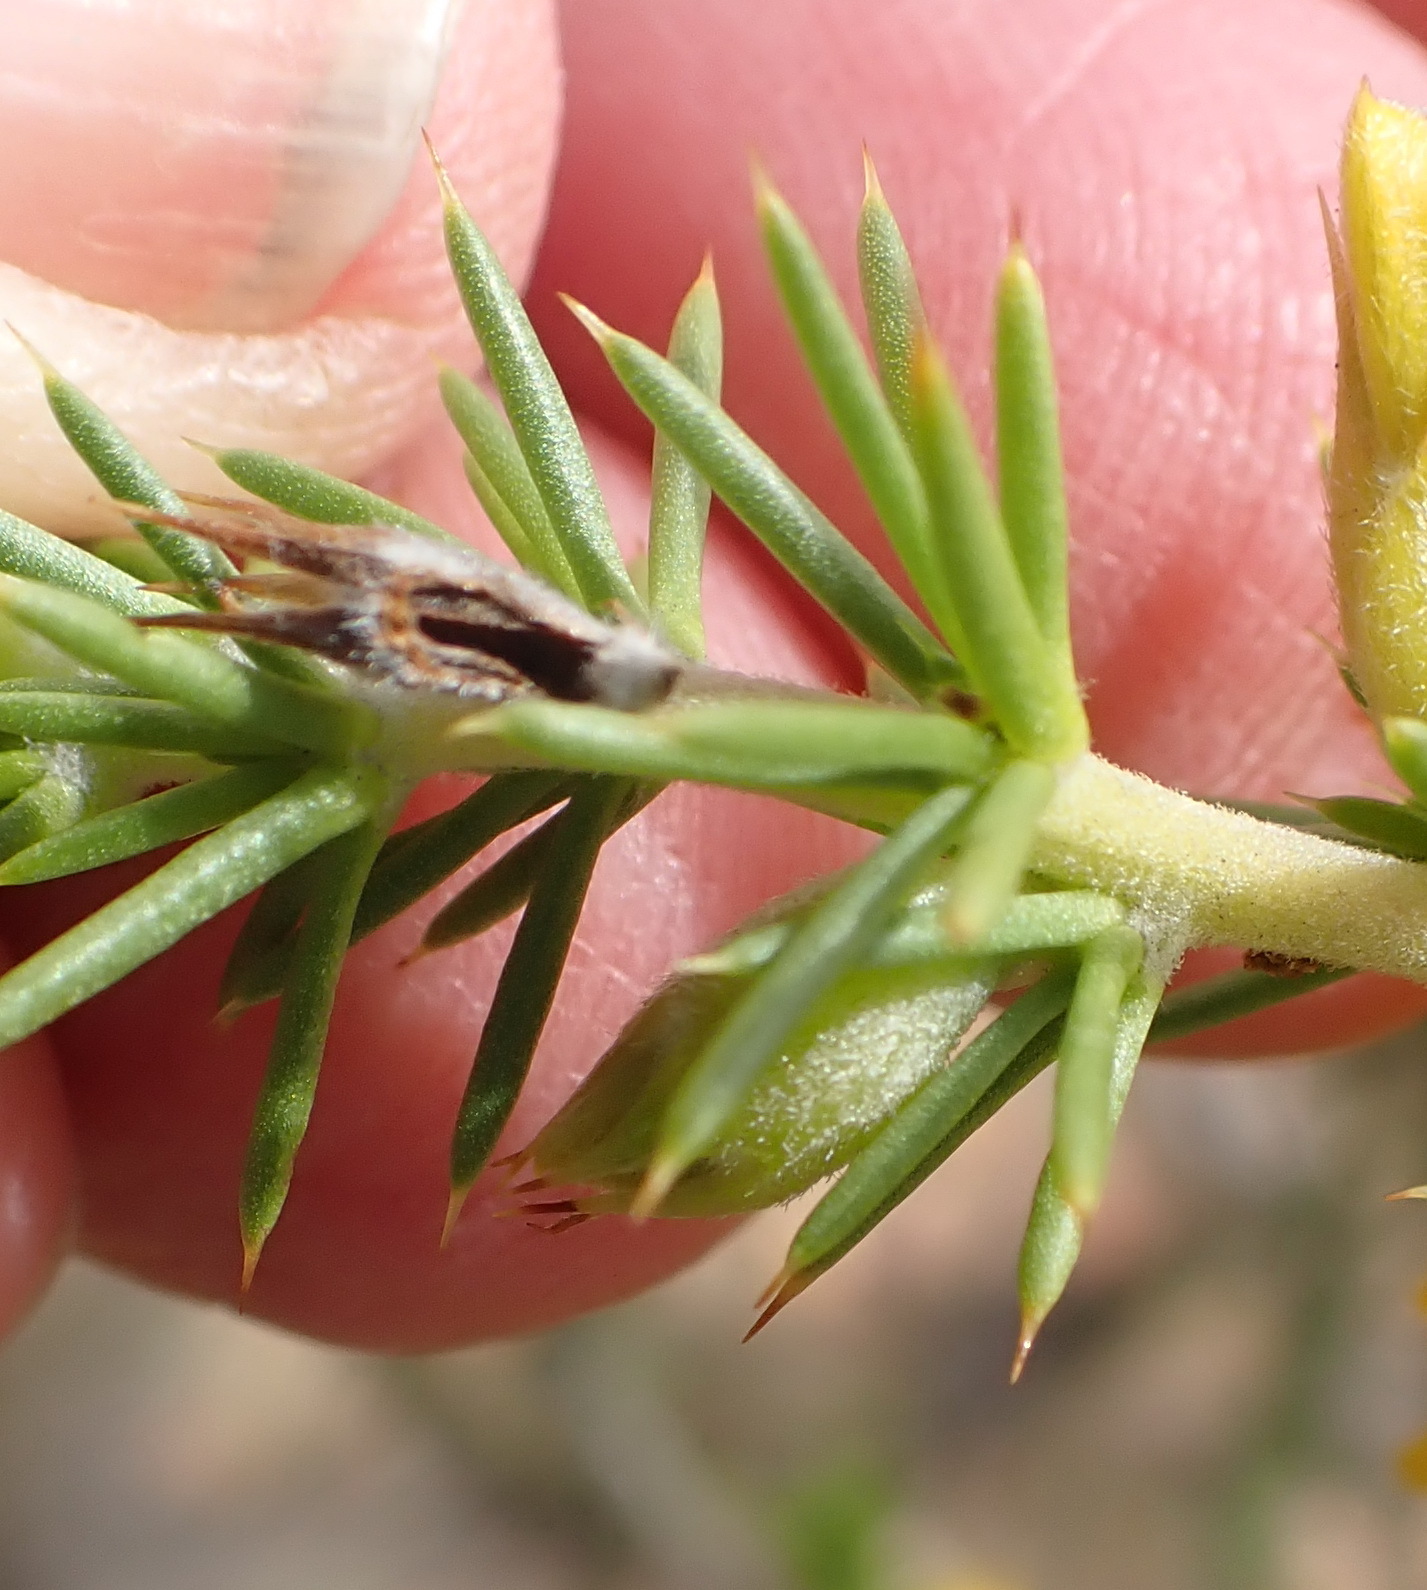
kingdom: Plantae
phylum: Tracheophyta
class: Magnoliopsida
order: Fabales
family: Fabaceae
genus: Aspalathus
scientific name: Aspalathus hirta
